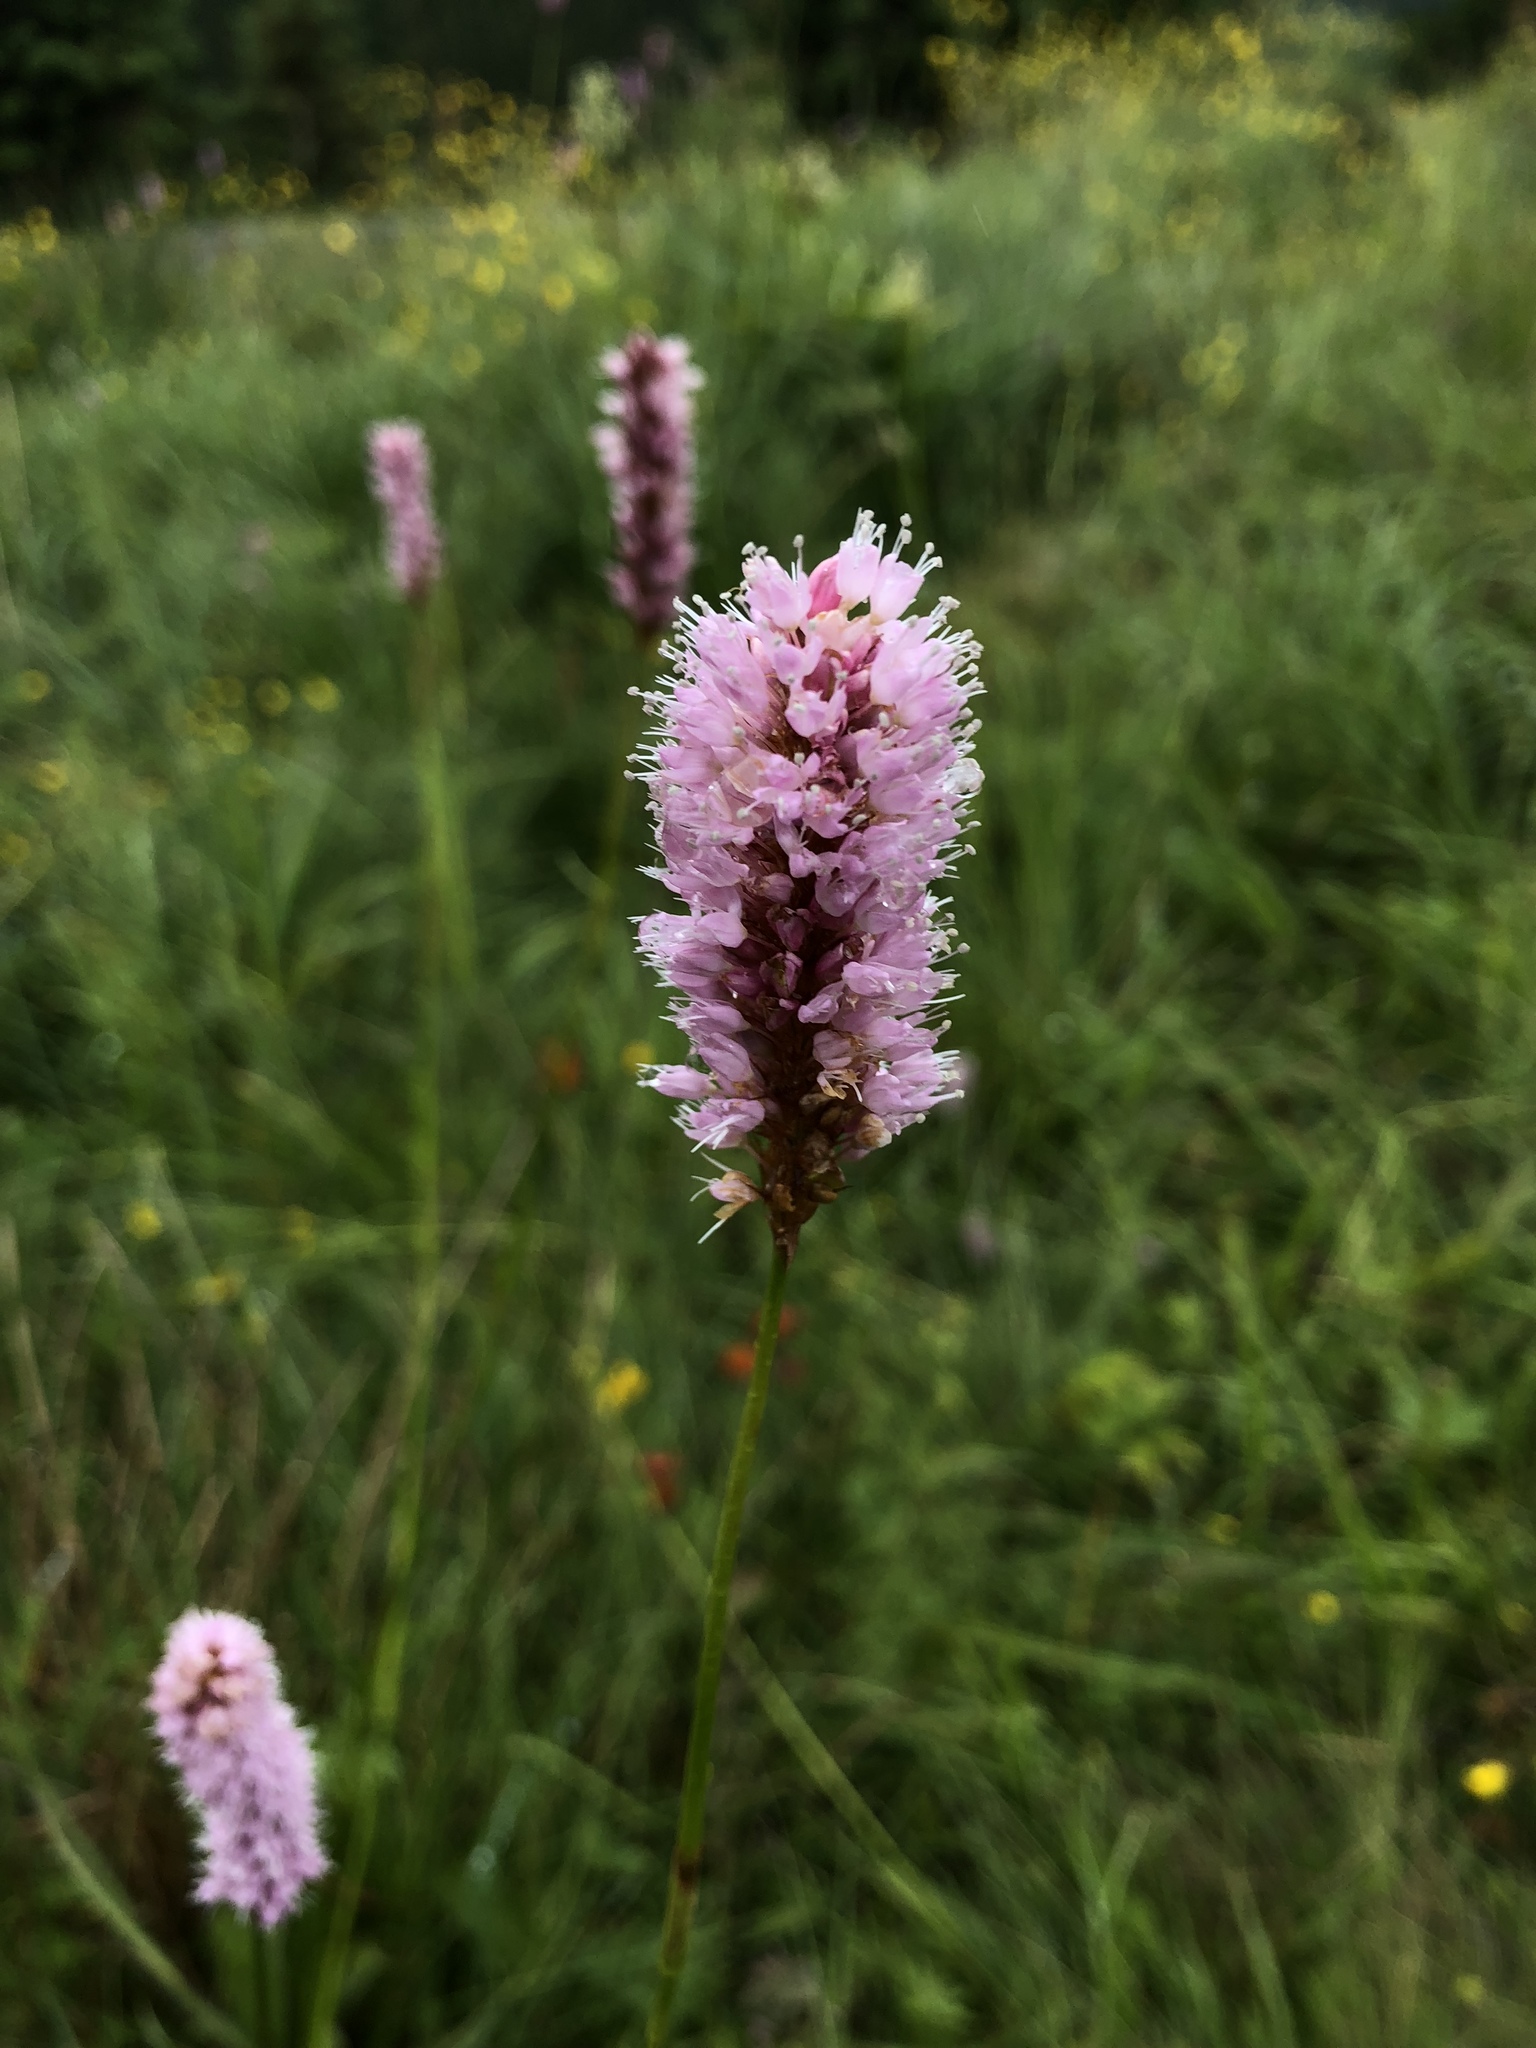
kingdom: Plantae
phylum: Tracheophyta
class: Magnoliopsida
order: Caryophyllales
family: Polygonaceae
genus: Bistorta
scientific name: Bistorta officinalis
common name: Common bistort
